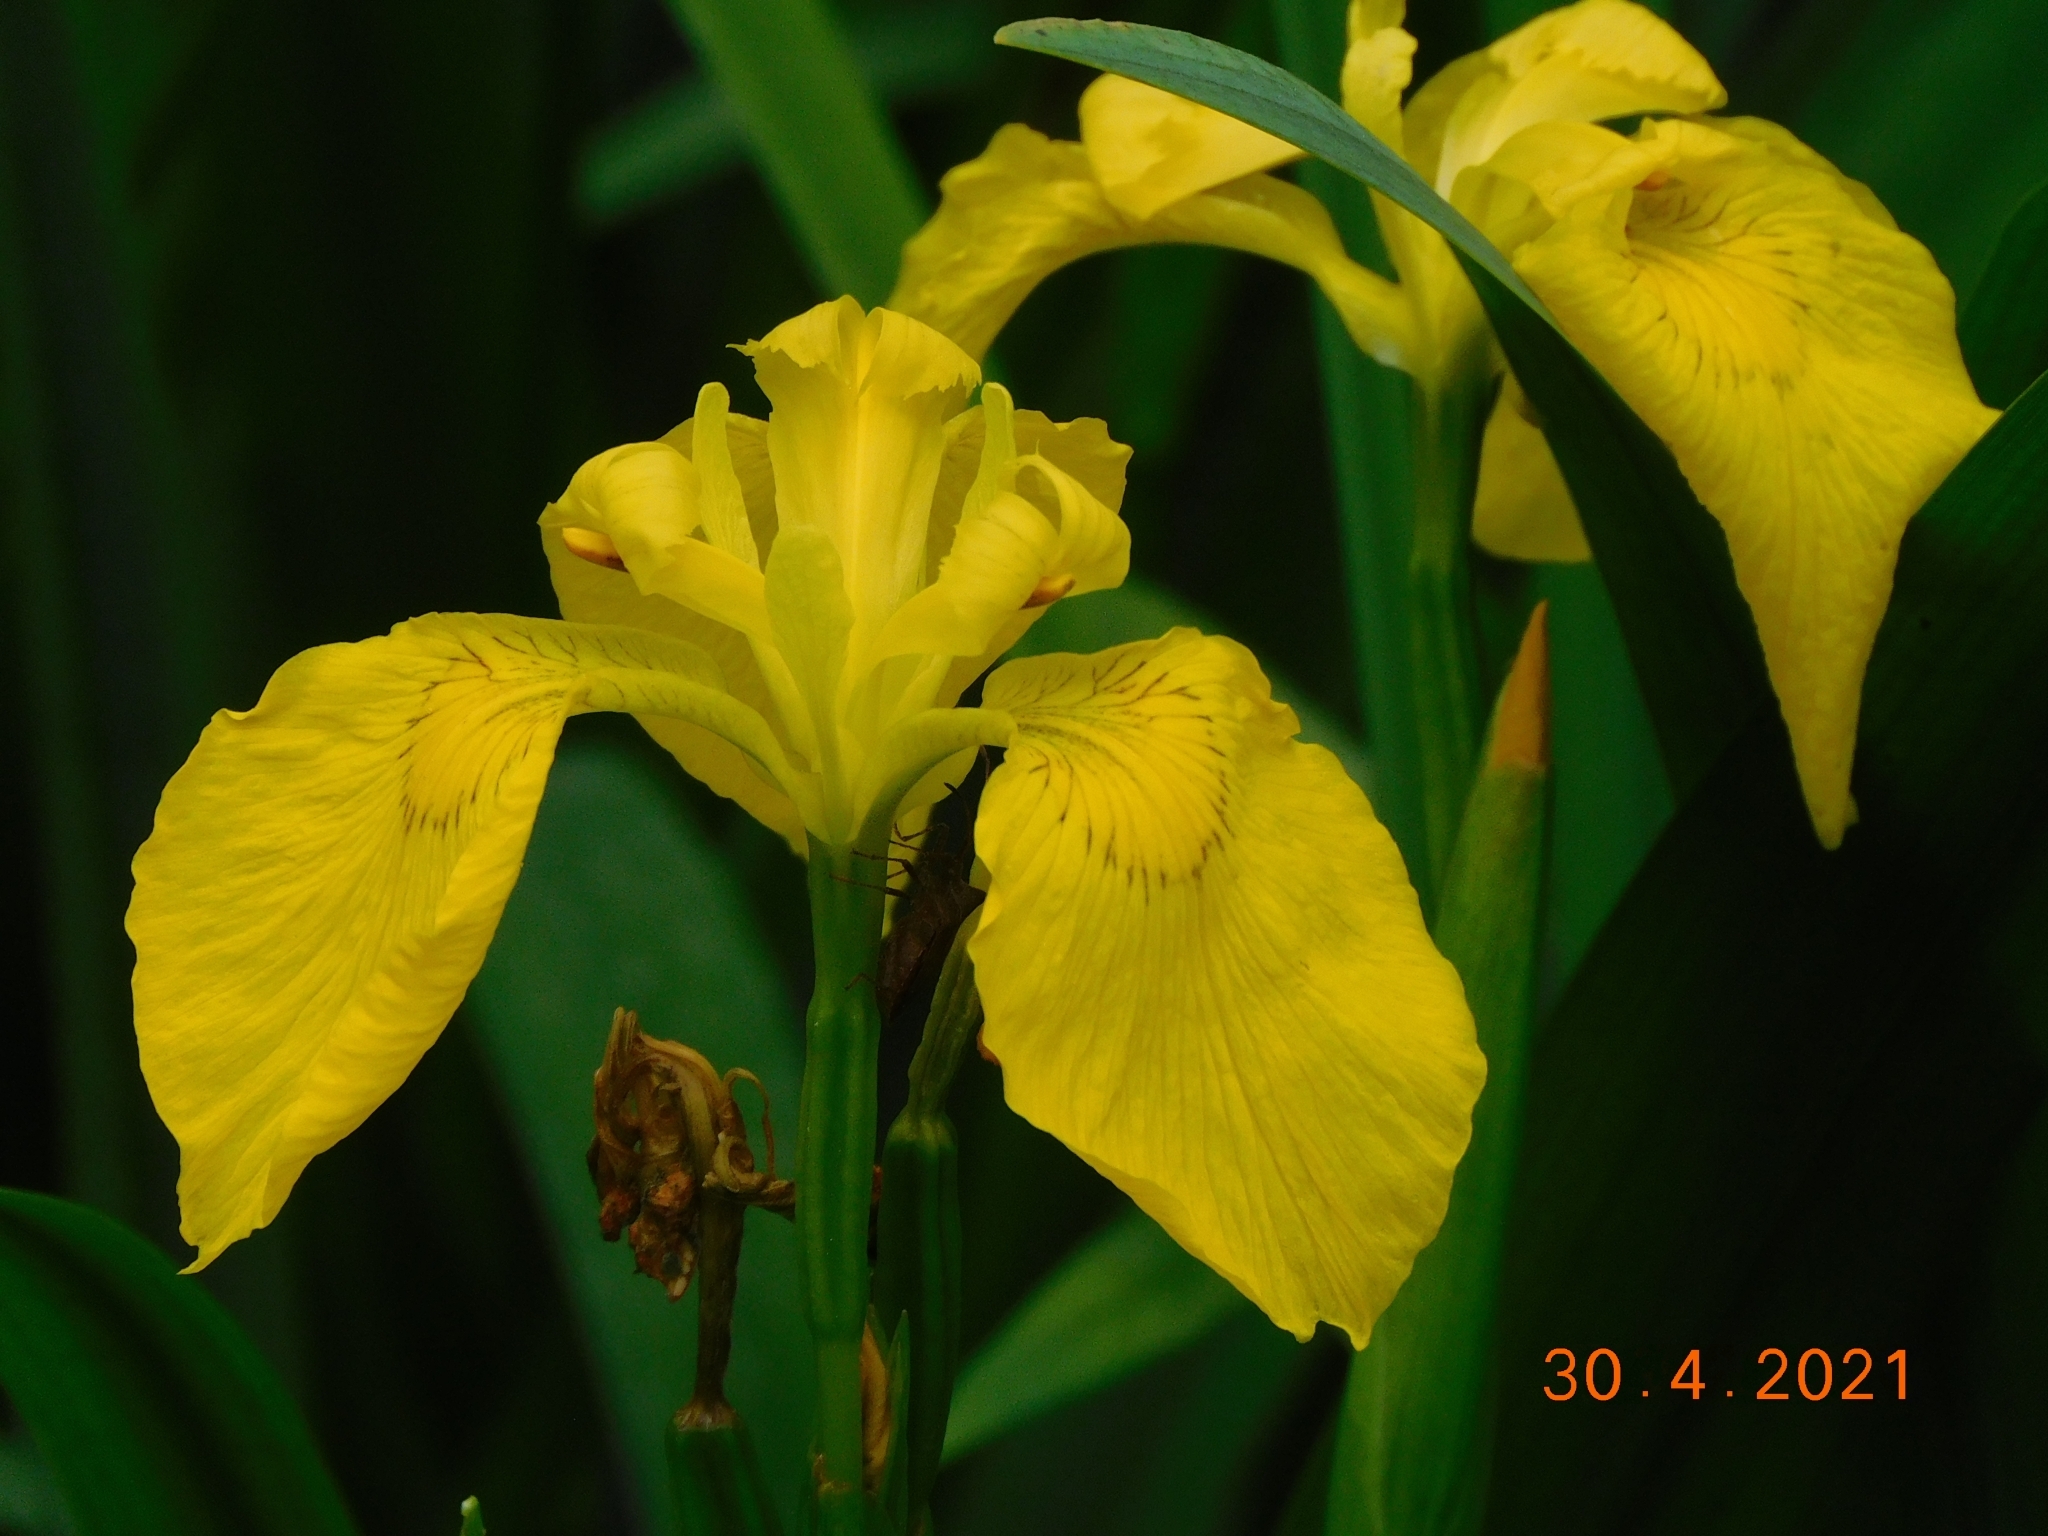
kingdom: Plantae
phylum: Tracheophyta
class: Liliopsida
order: Asparagales
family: Iridaceae
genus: Iris
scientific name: Iris pseudacorus
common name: Yellow flag
